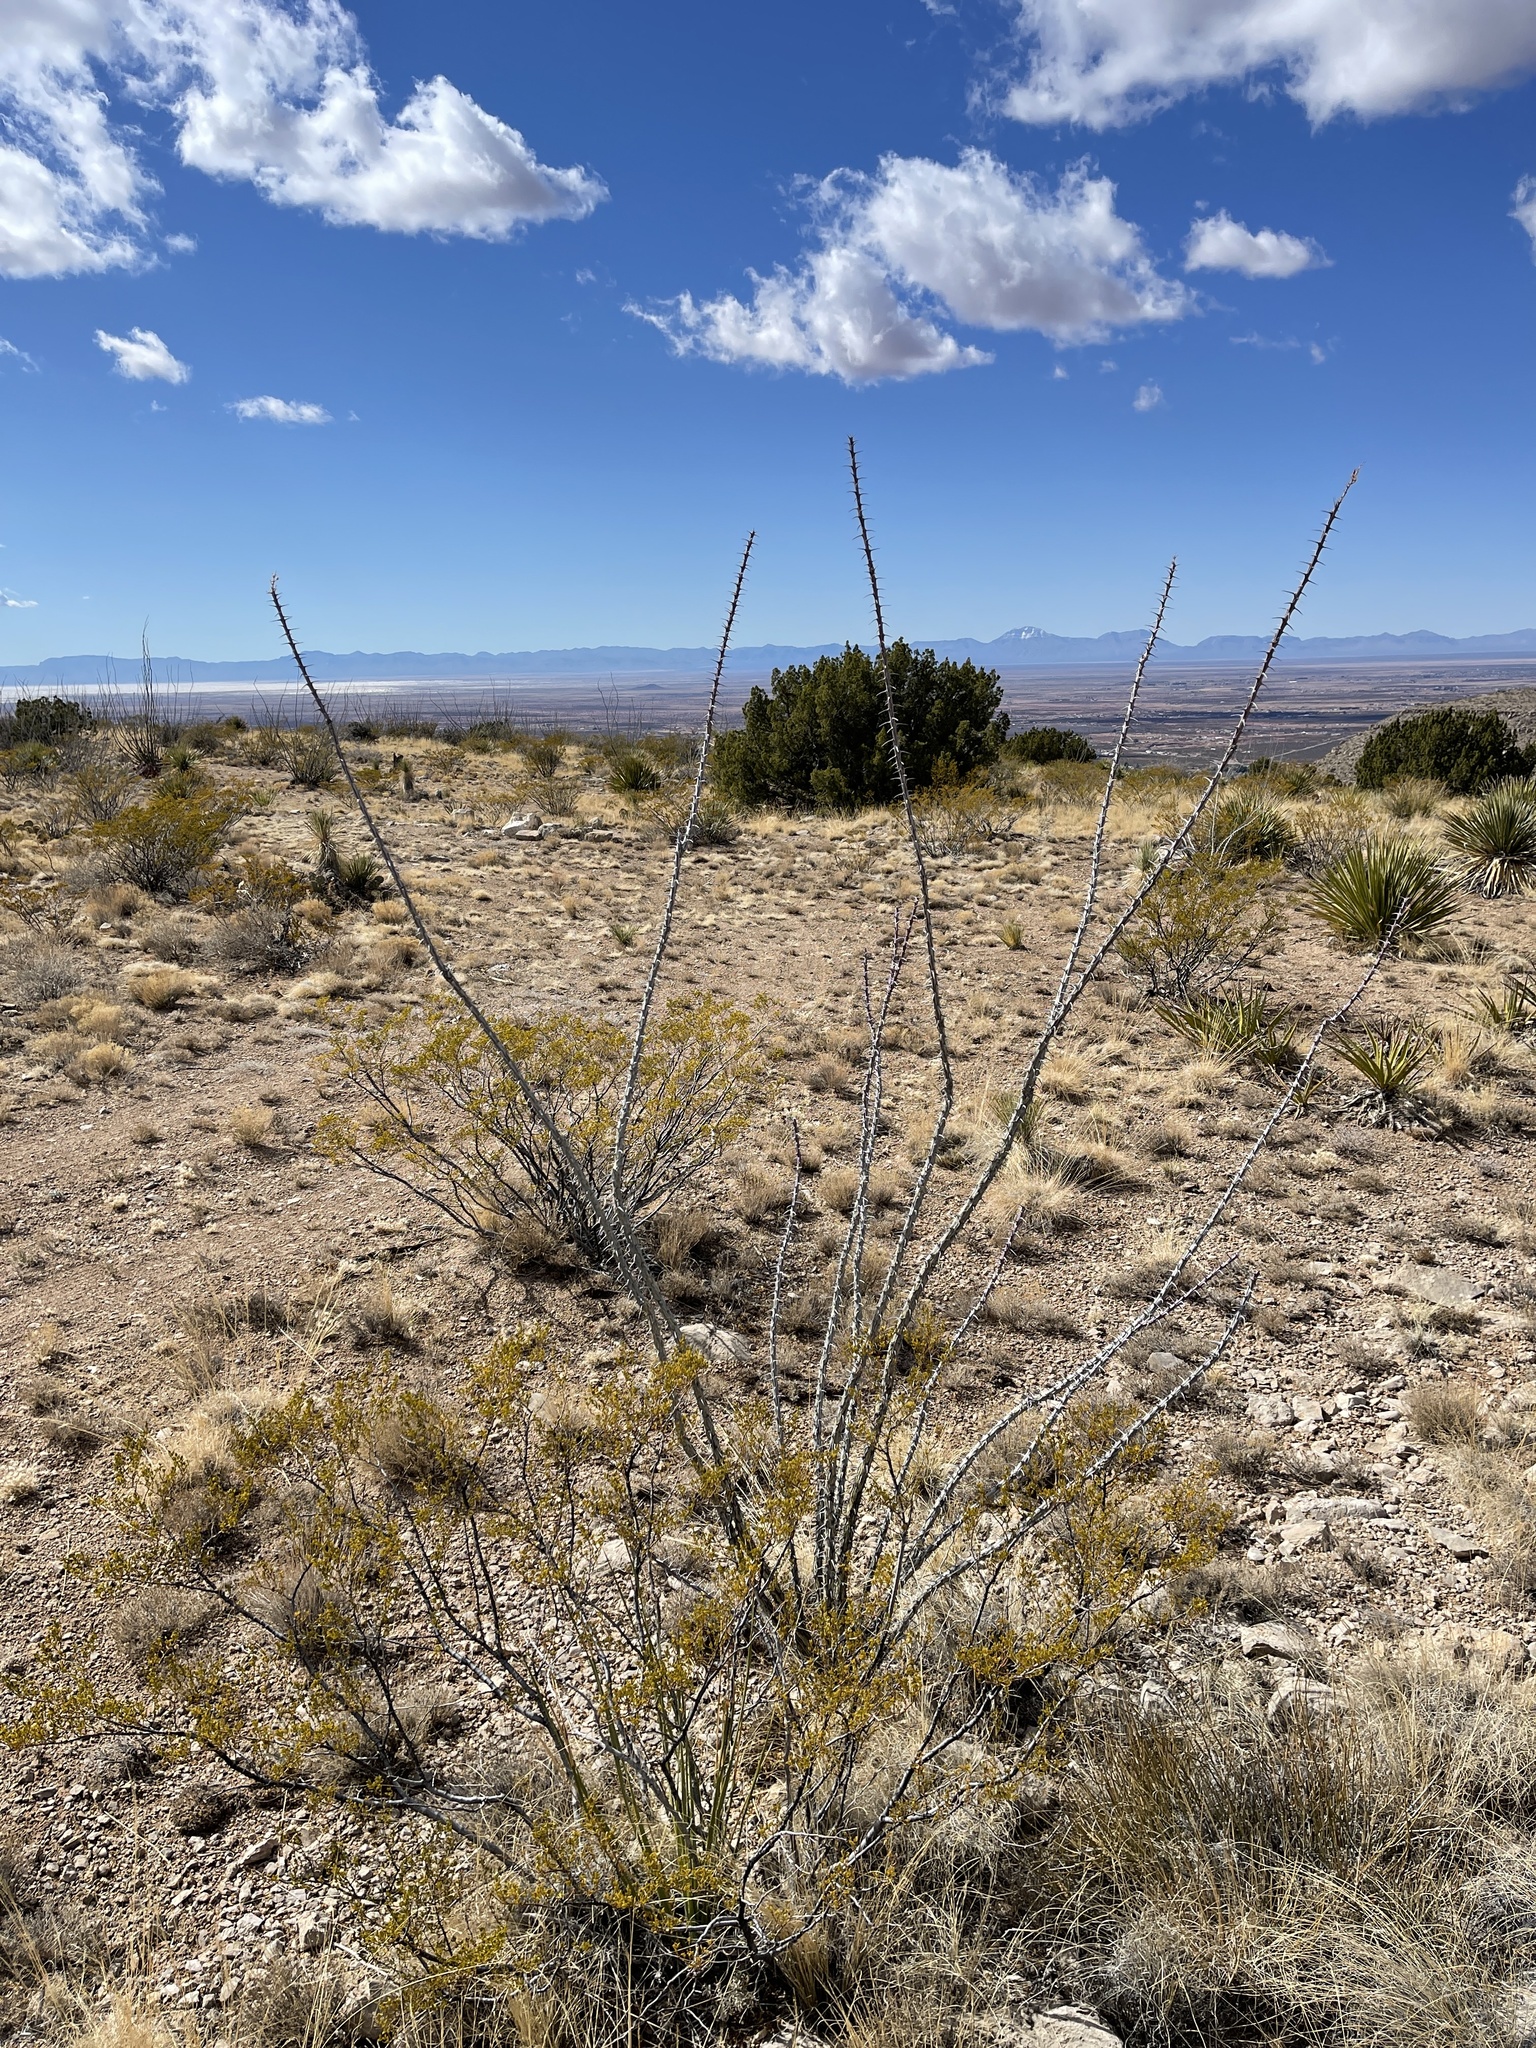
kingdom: Plantae
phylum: Tracheophyta
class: Magnoliopsida
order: Ericales
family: Fouquieriaceae
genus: Fouquieria
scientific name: Fouquieria splendens
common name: Vine-cactus
